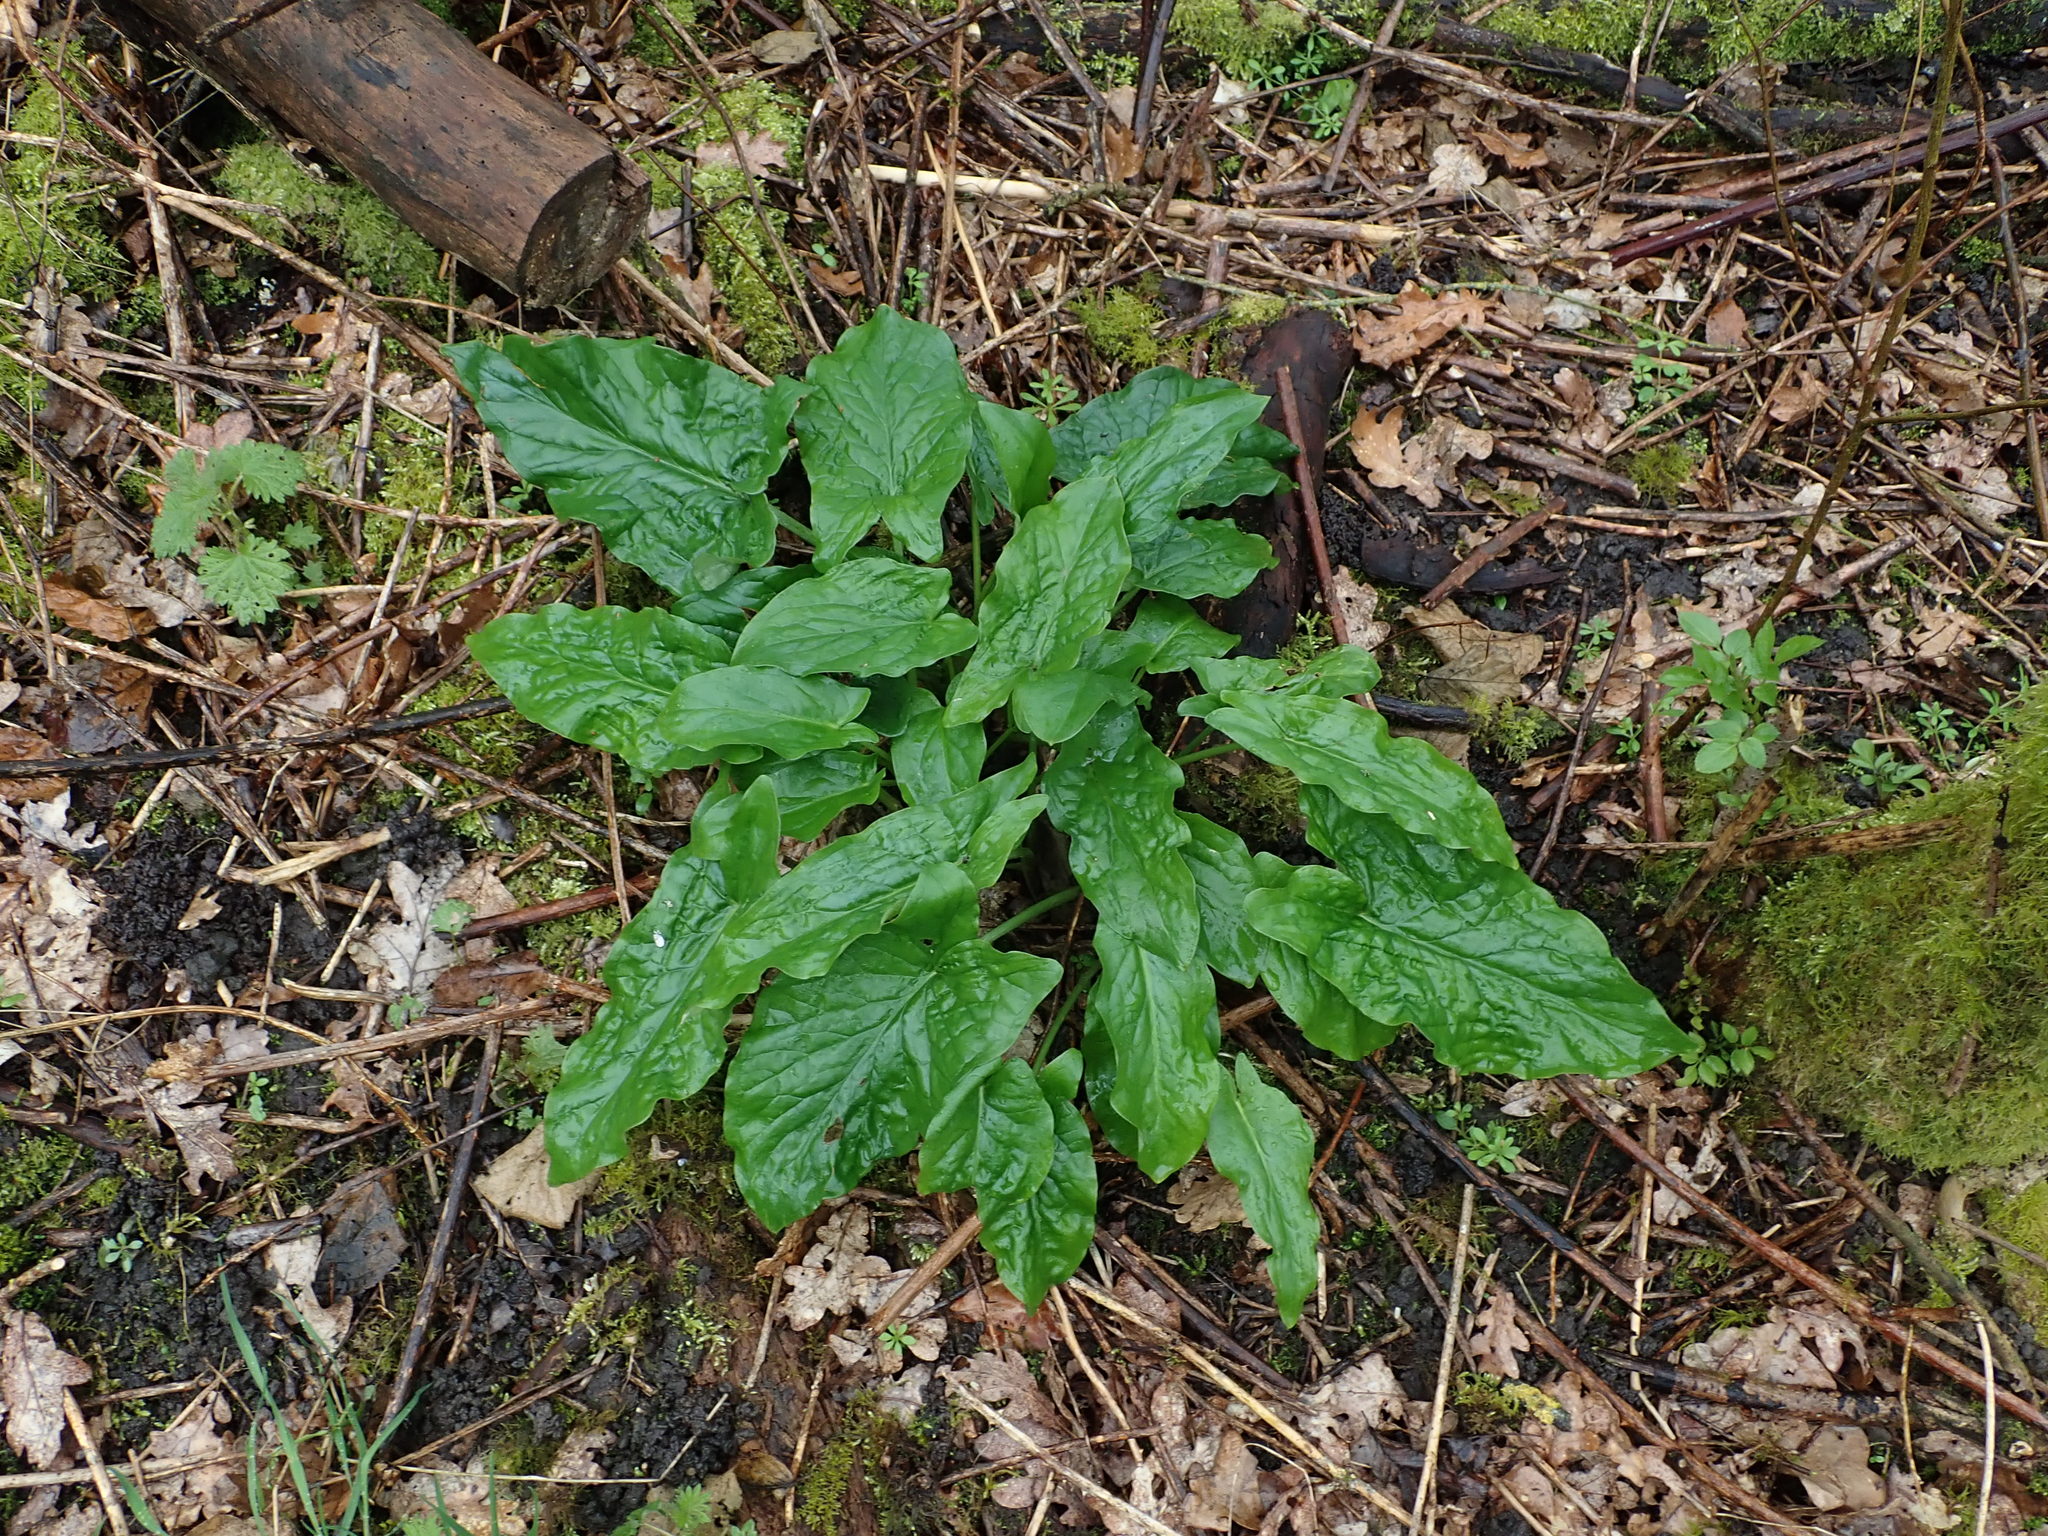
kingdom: Plantae
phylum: Tracheophyta
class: Liliopsida
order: Alismatales
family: Araceae
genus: Arum
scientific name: Arum maculatum
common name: Lords-and-ladies
